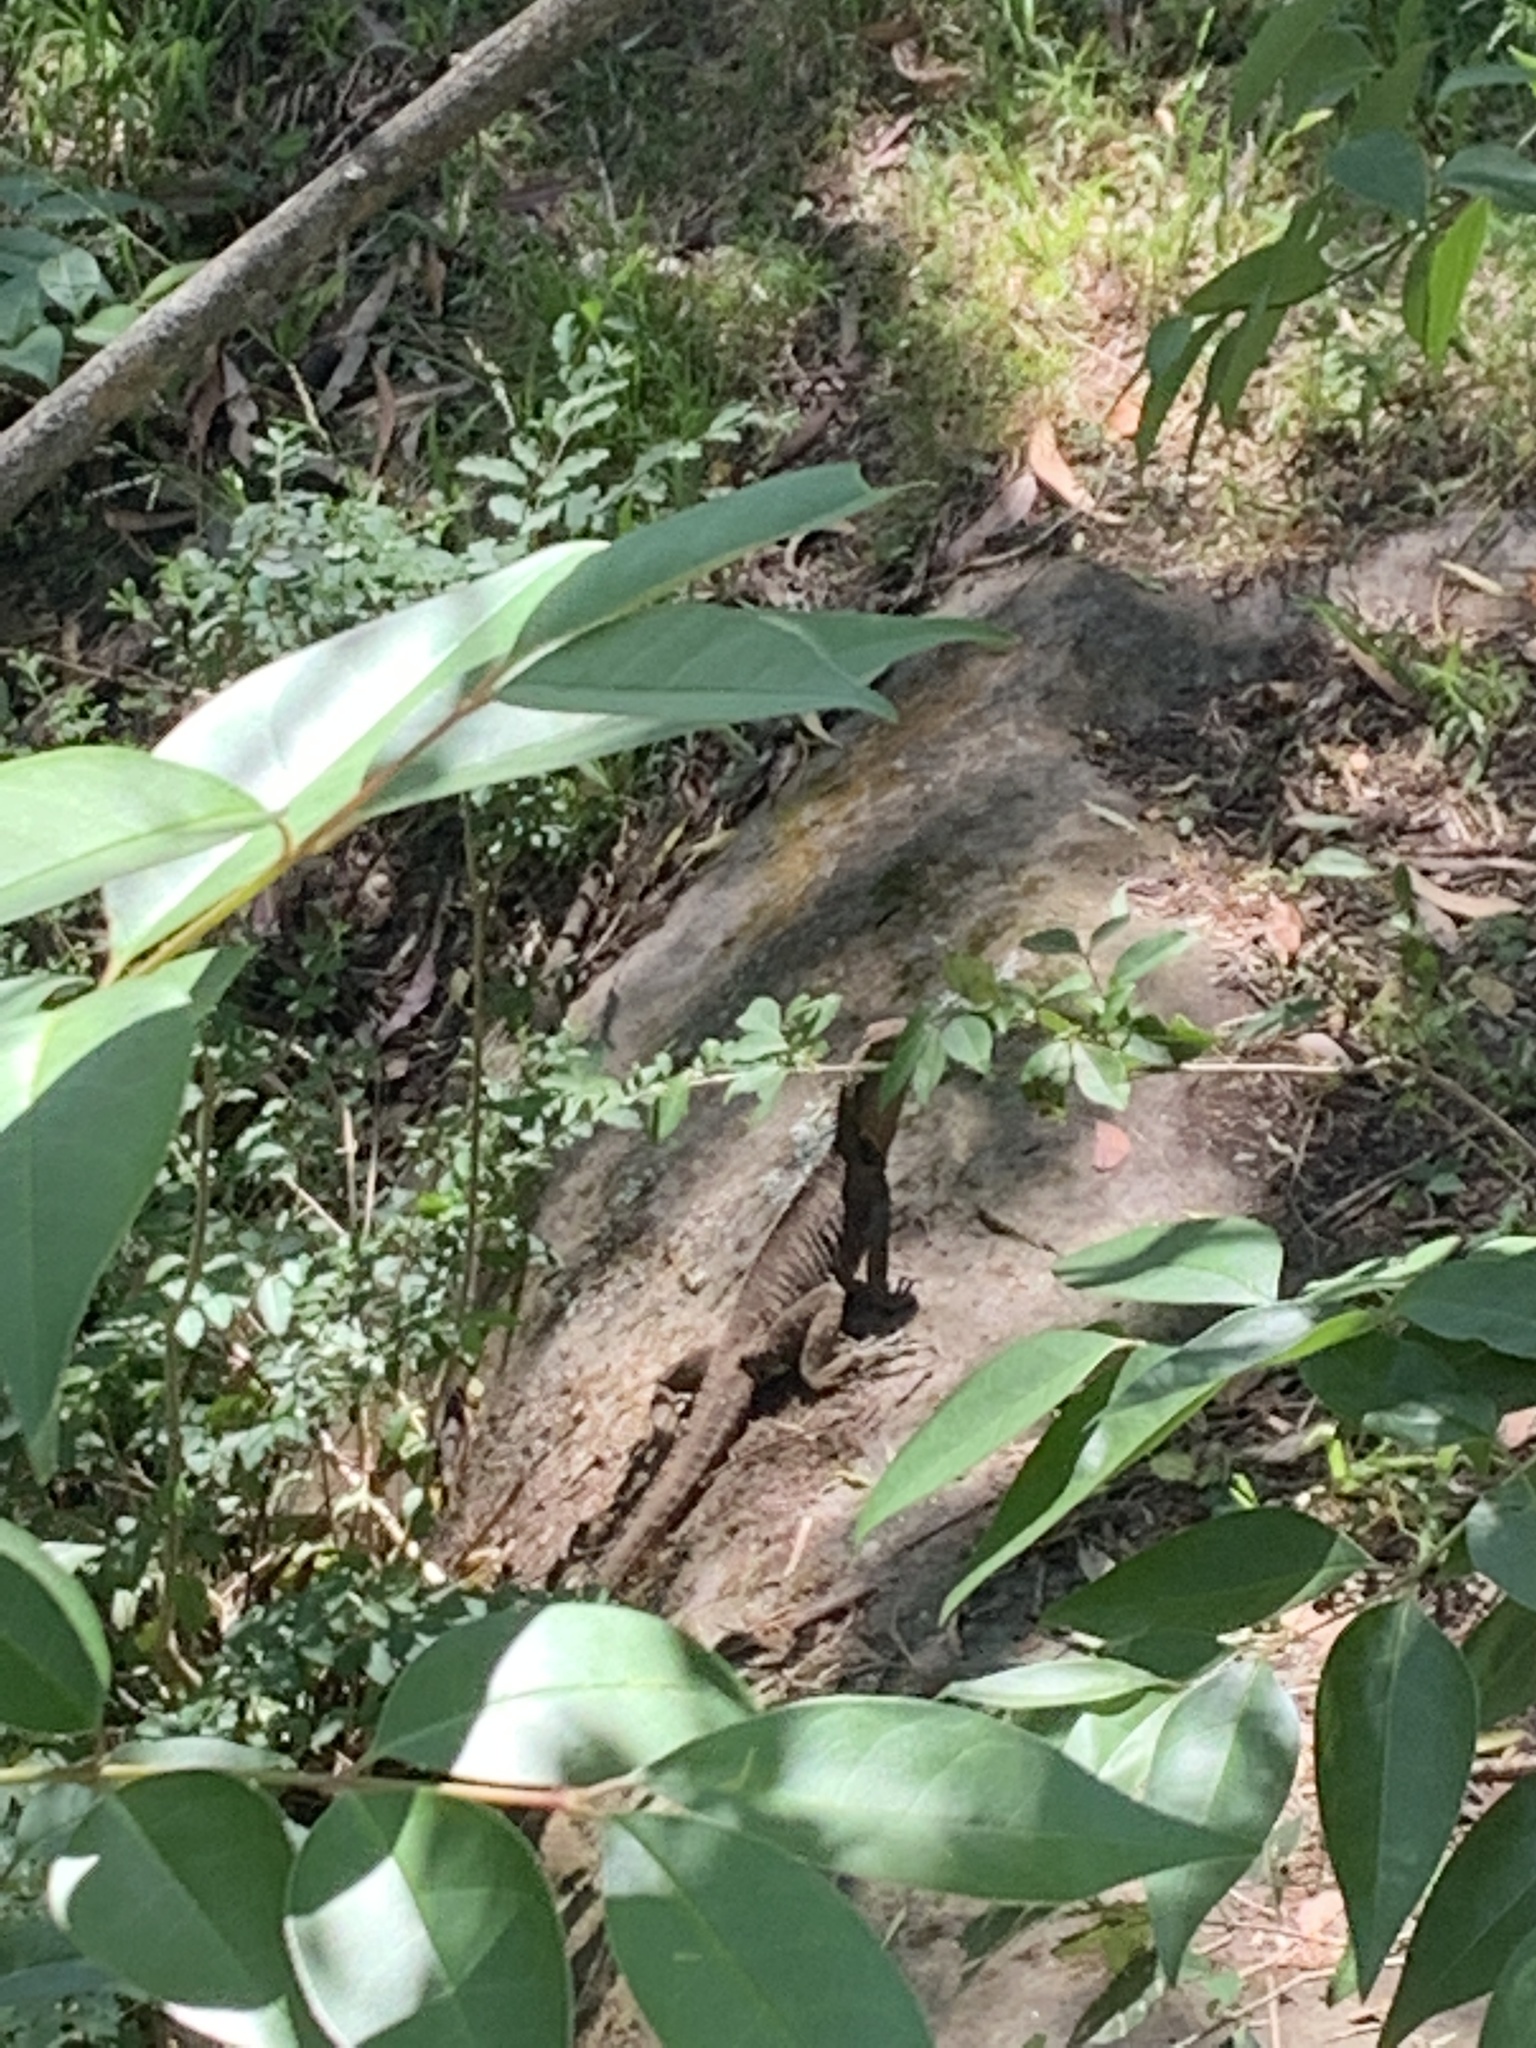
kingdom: Animalia
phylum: Chordata
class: Squamata
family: Agamidae
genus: Intellagama
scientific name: Intellagama lesueurii
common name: Eastern water dragon
